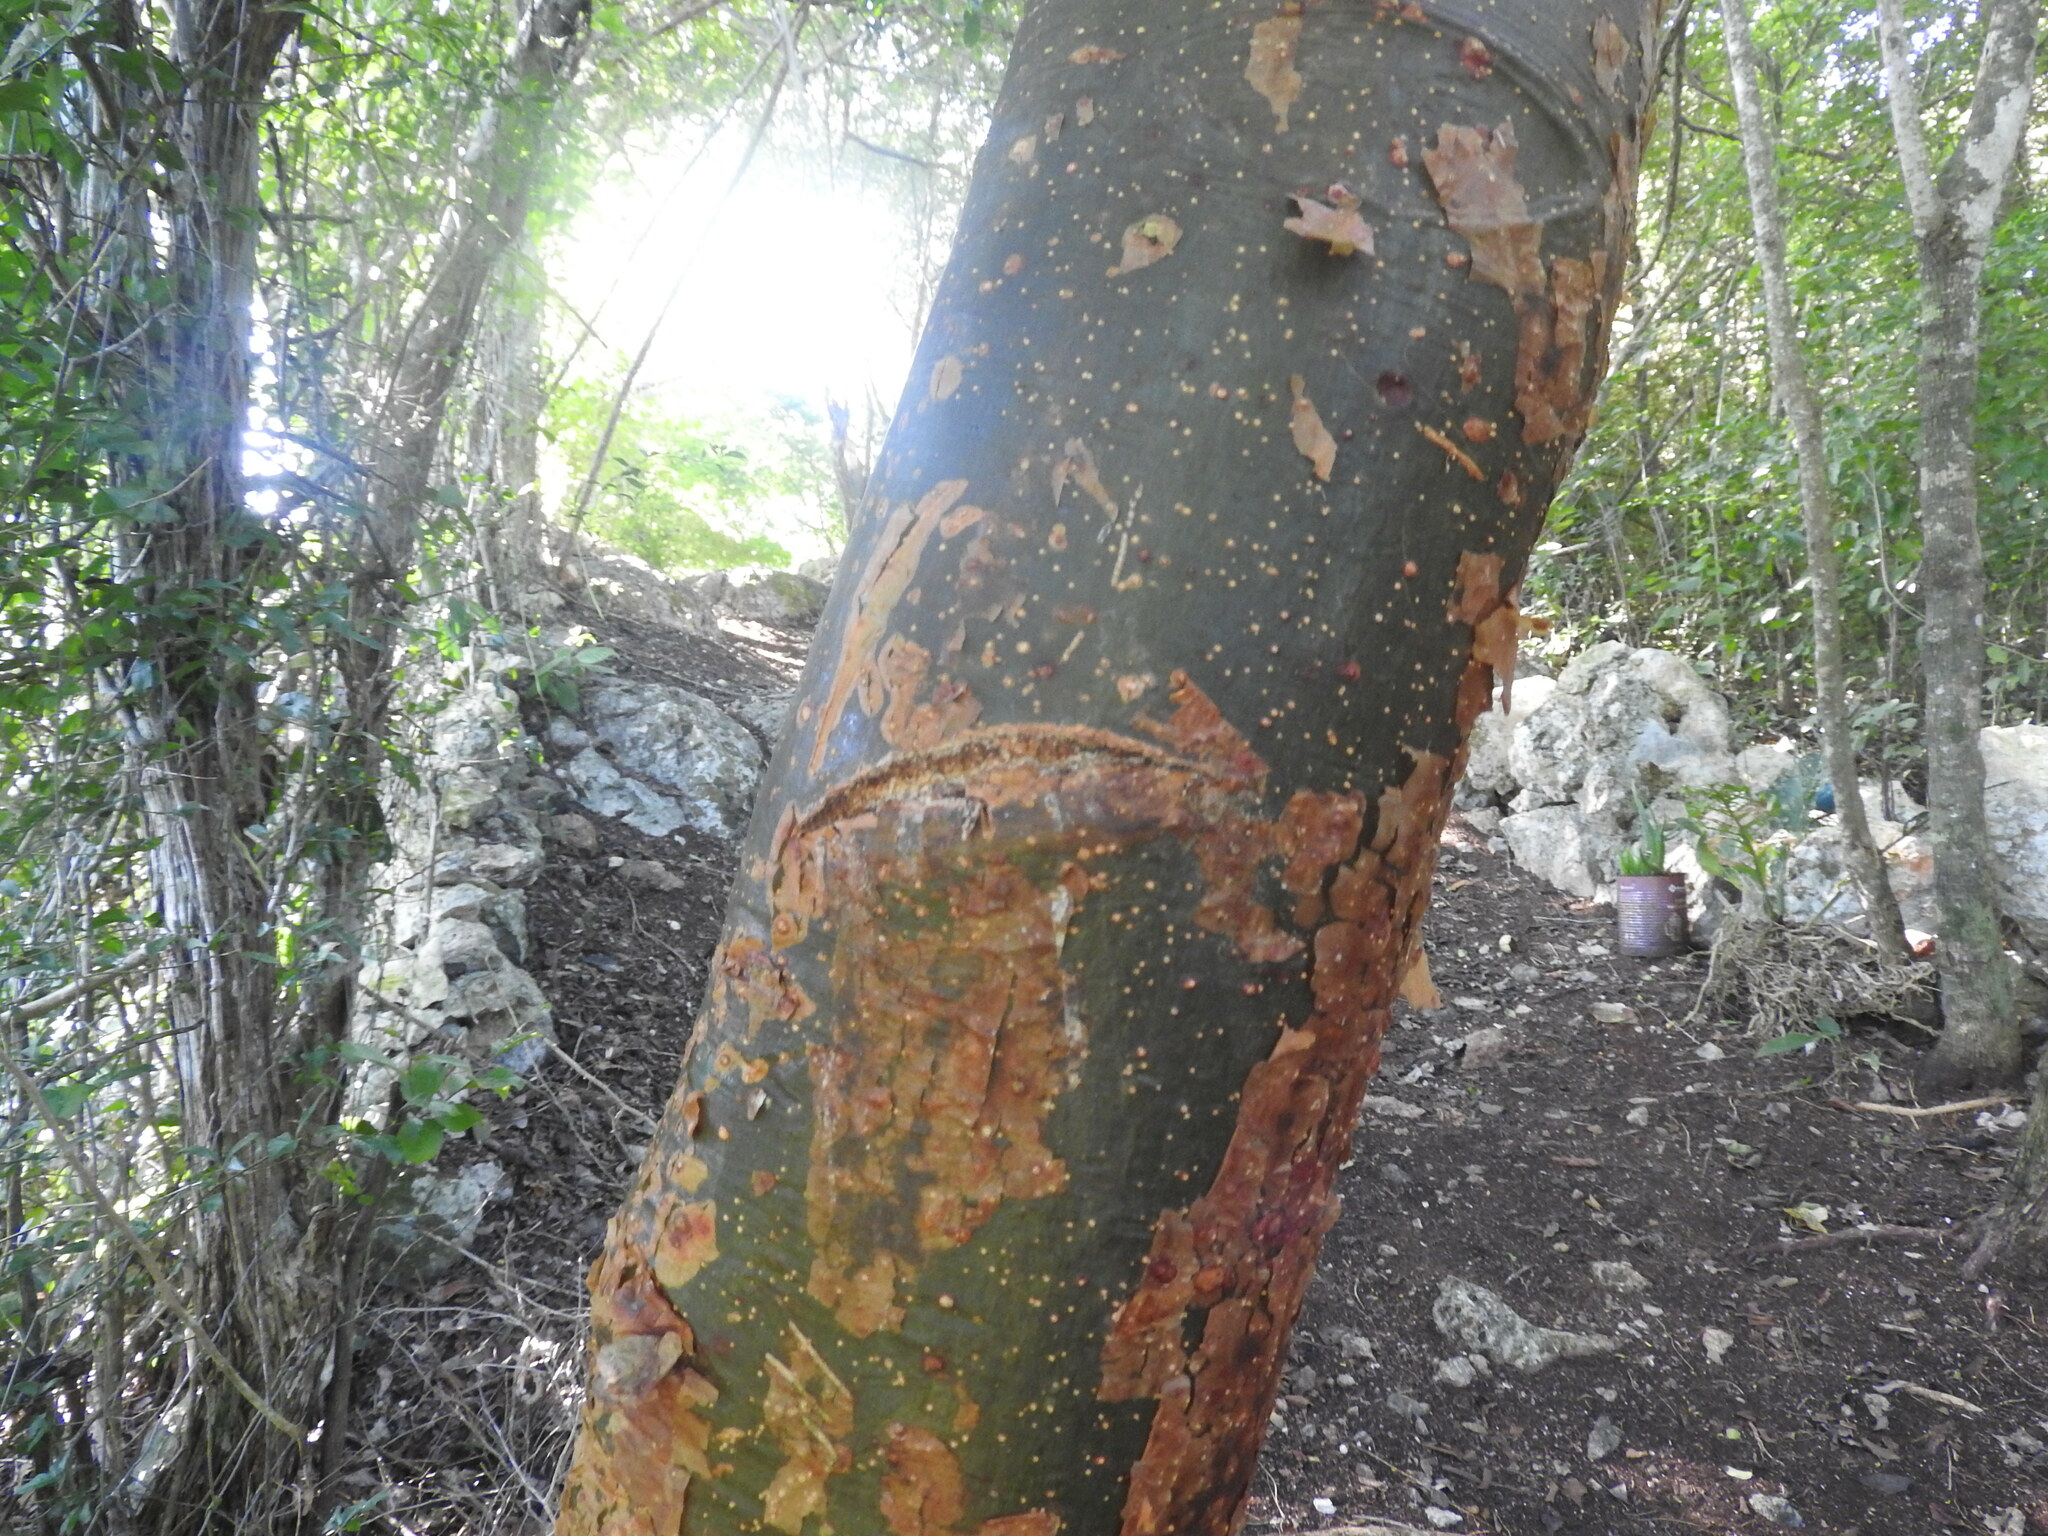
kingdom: Plantae
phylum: Tracheophyta
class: Magnoliopsida
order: Sapindales
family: Burseraceae
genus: Bursera
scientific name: Bursera simaruba
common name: Turpentine tree
